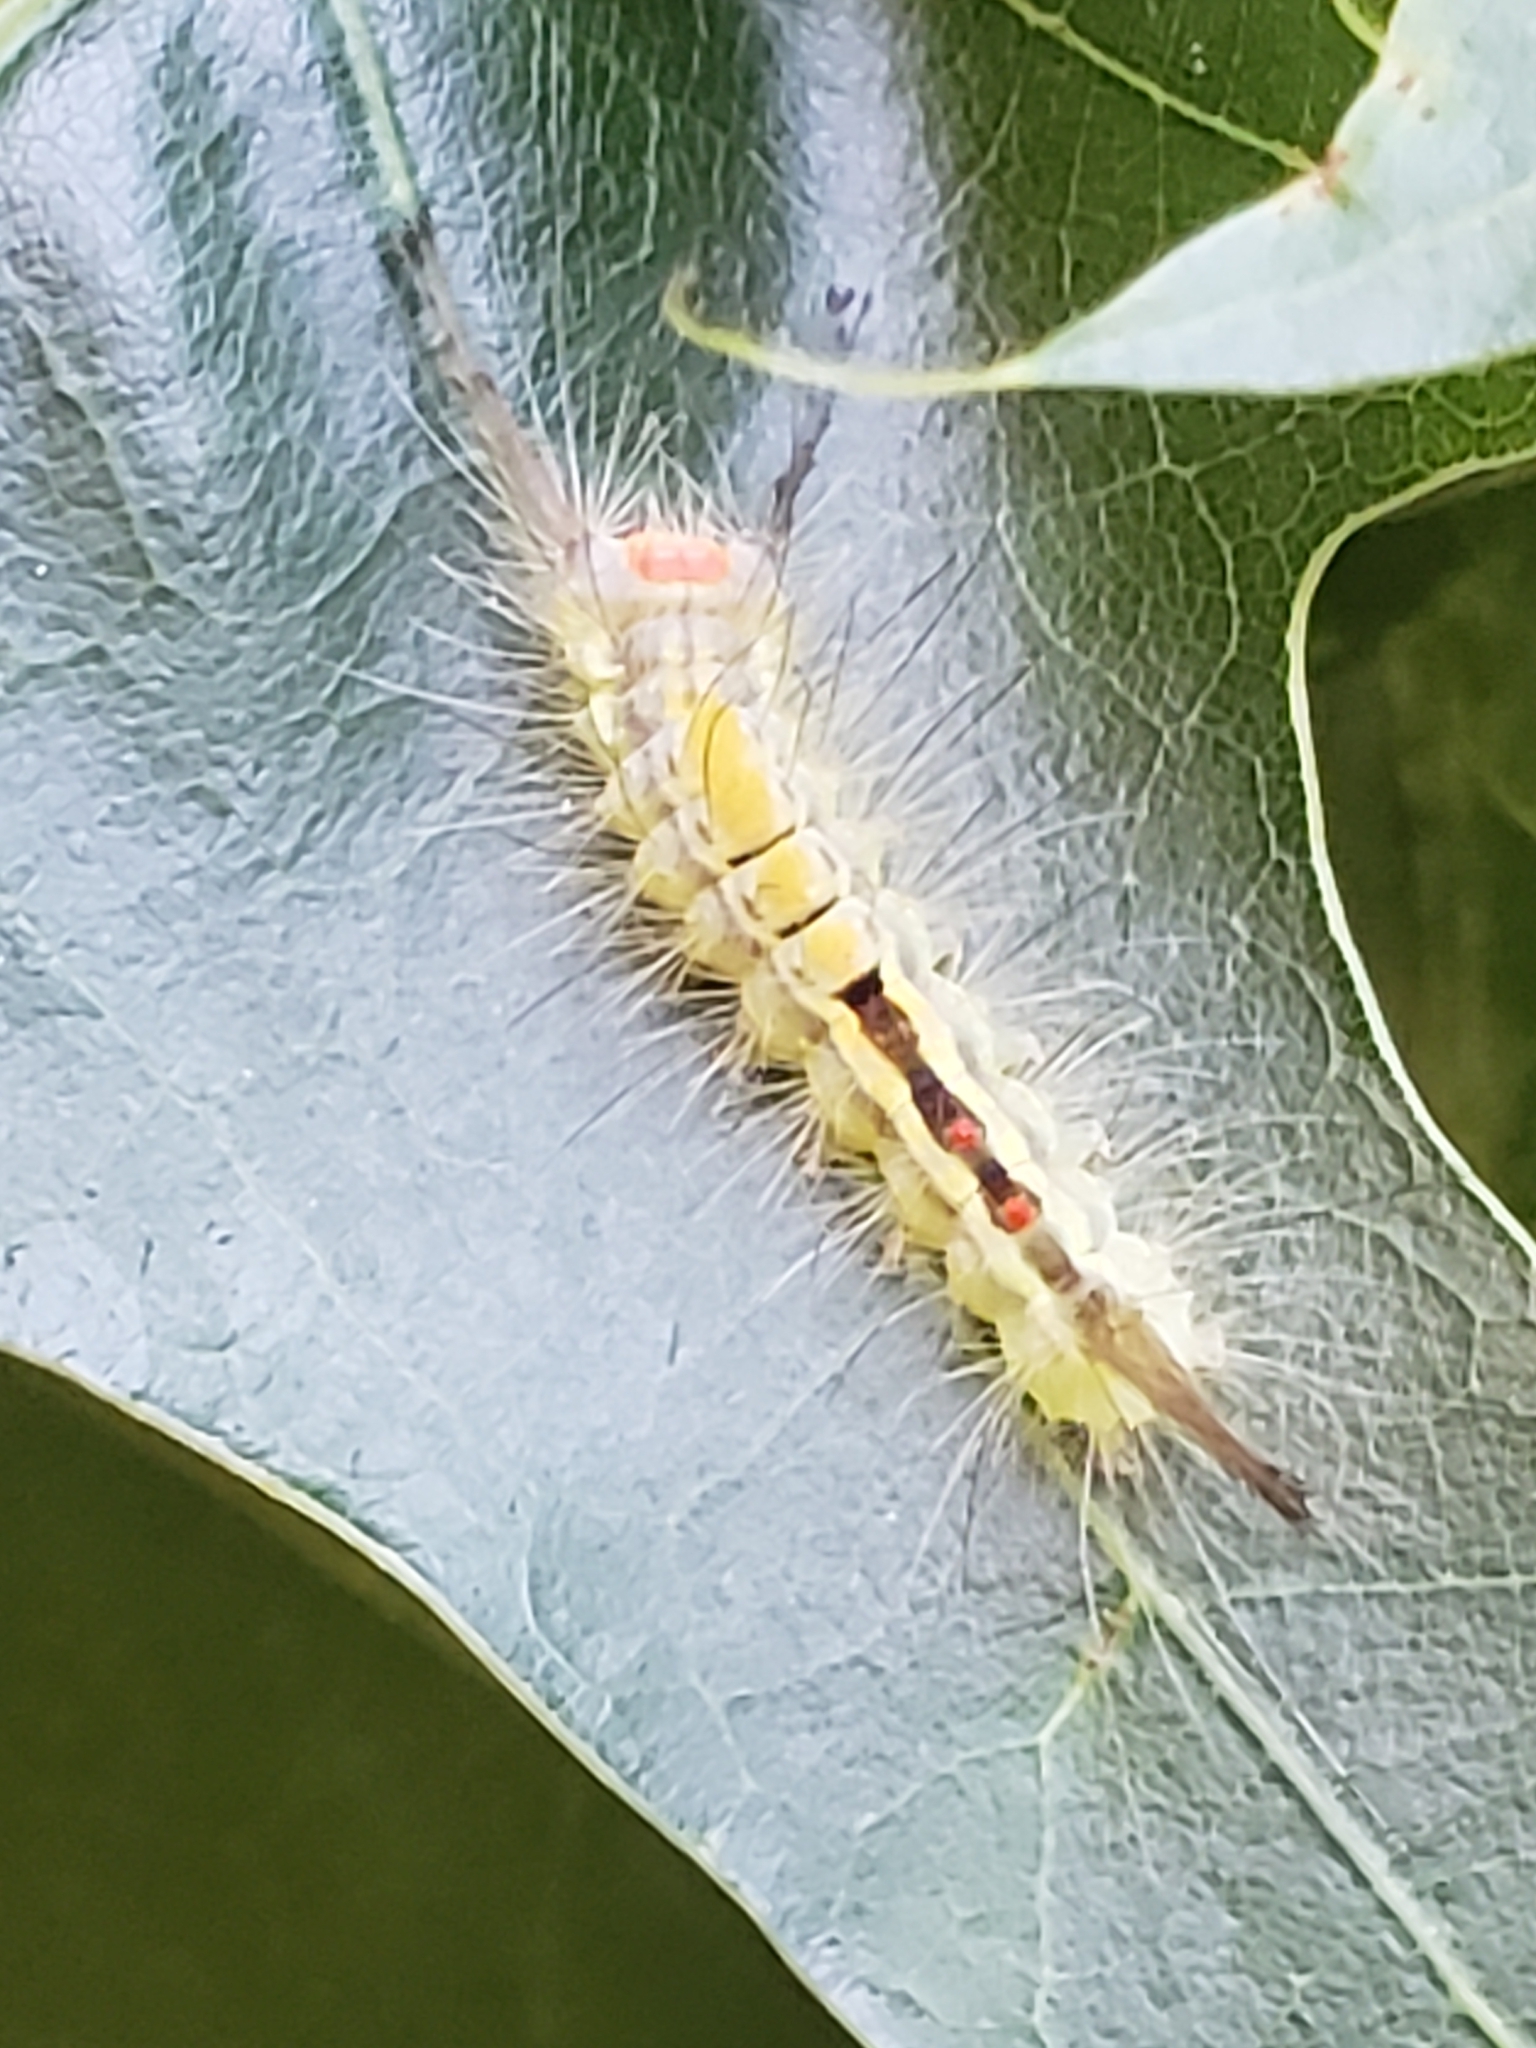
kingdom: Animalia
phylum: Arthropoda
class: Insecta
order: Lepidoptera
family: Erebidae
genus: Orgyia
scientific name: Orgyia leucostigma
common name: White-marked tussock moth
